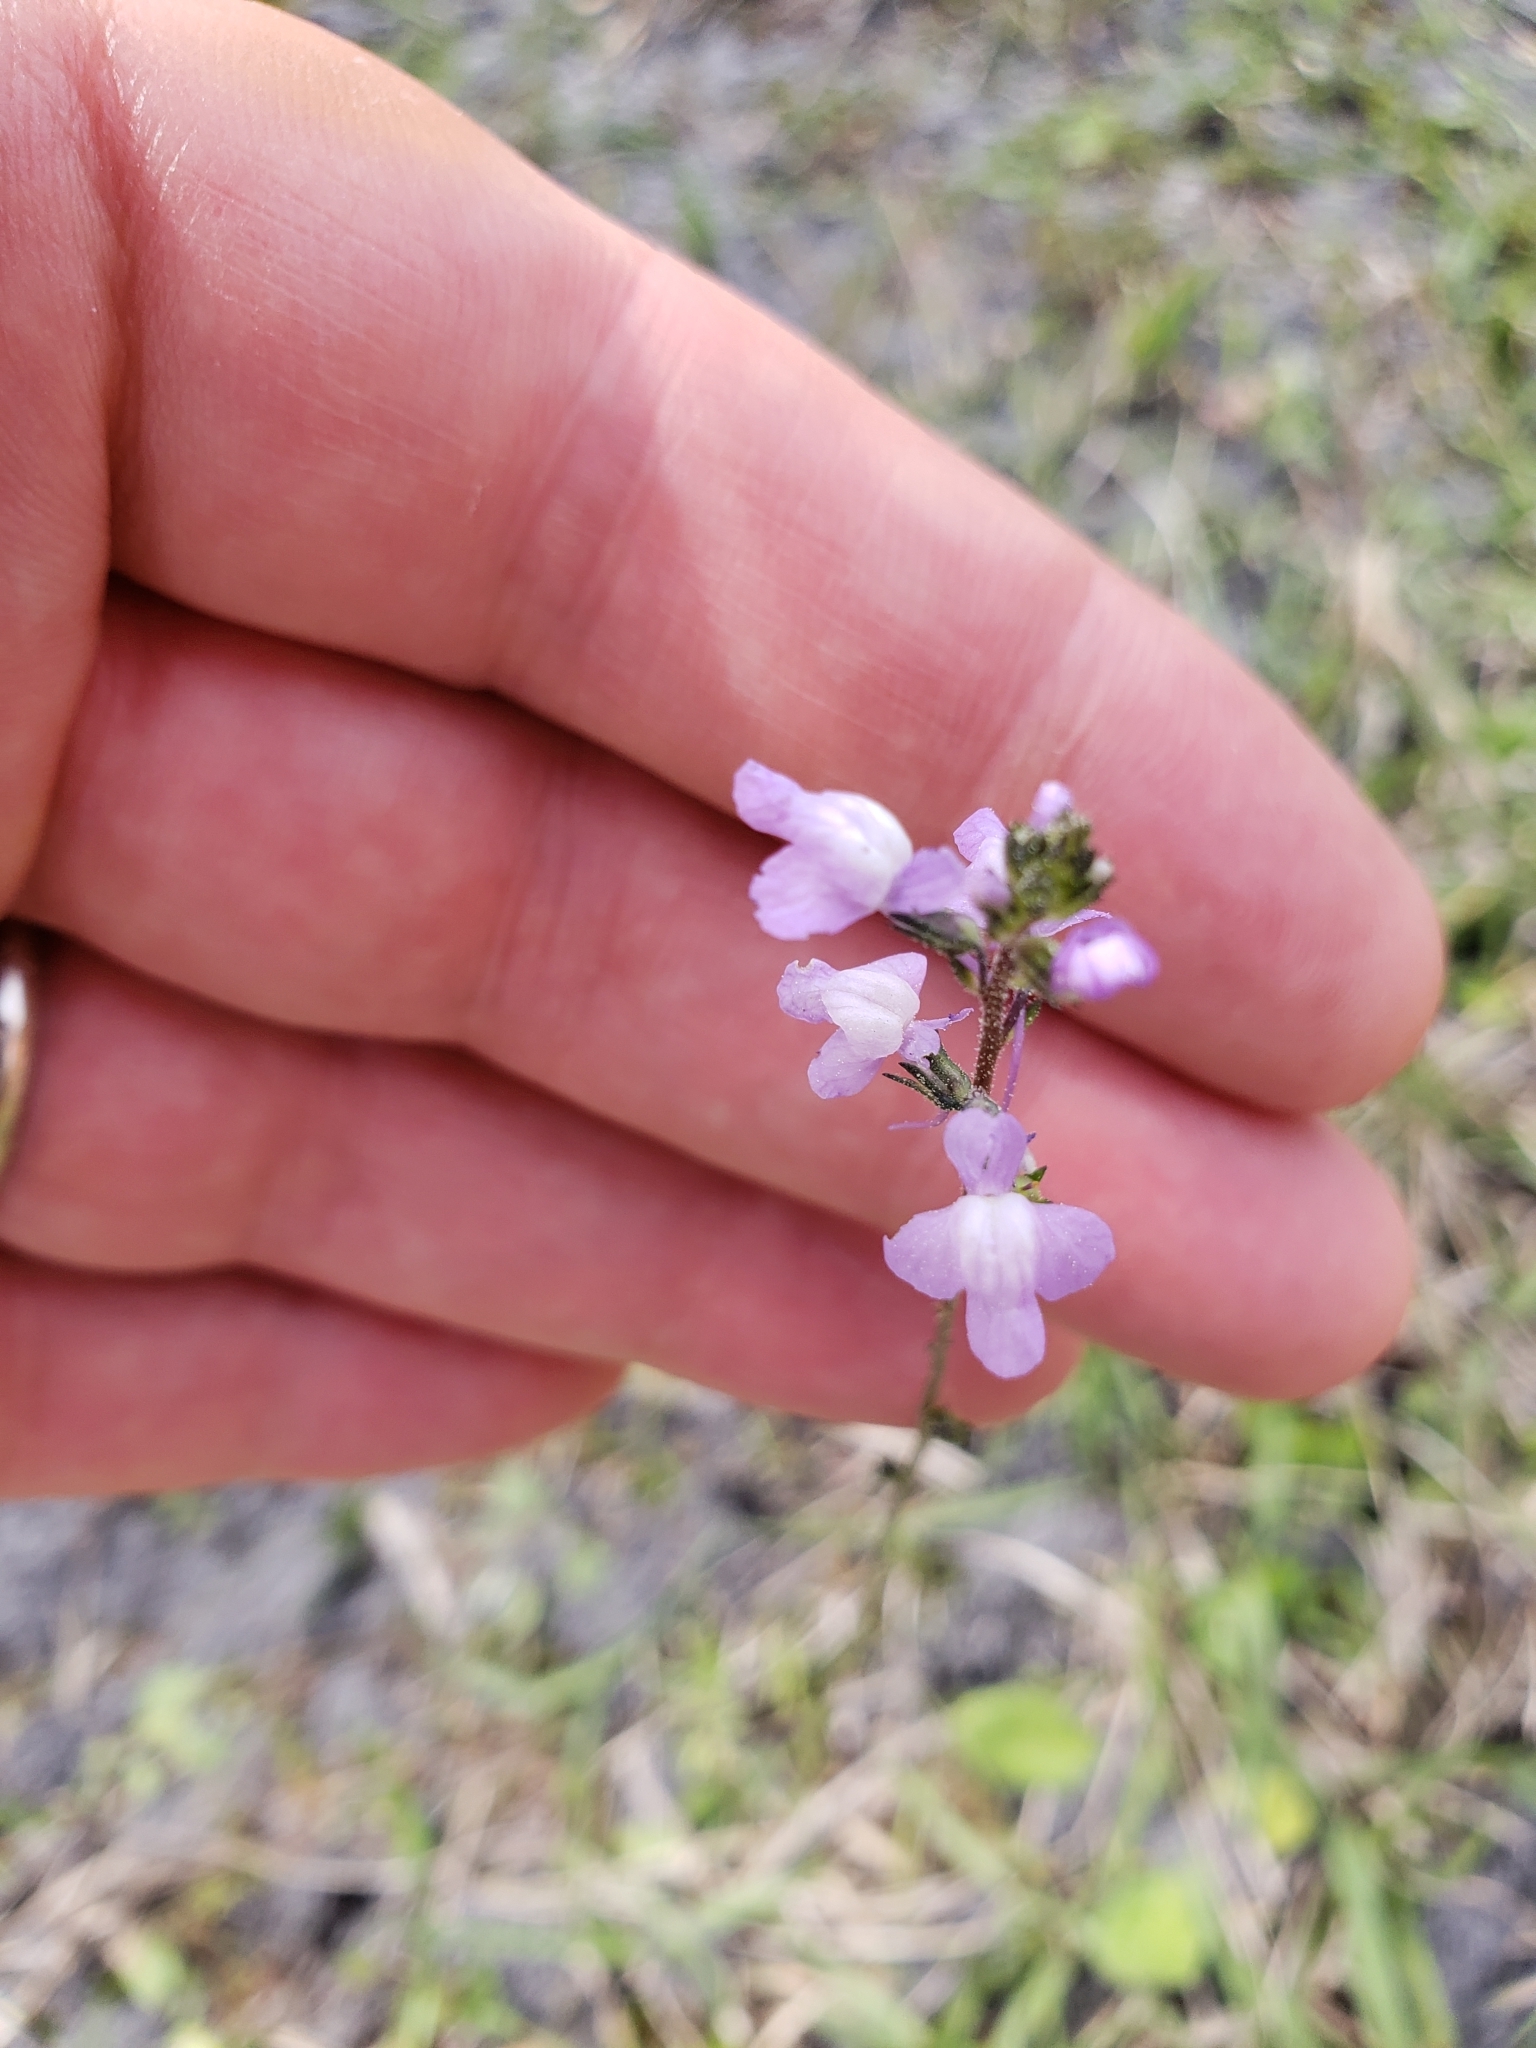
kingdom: Plantae
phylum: Tracheophyta
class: Magnoliopsida
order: Lamiales
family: Plantaginaceae
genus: Nuttallanthus
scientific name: Nuttallanthus canadensis
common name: Blue toadflax
